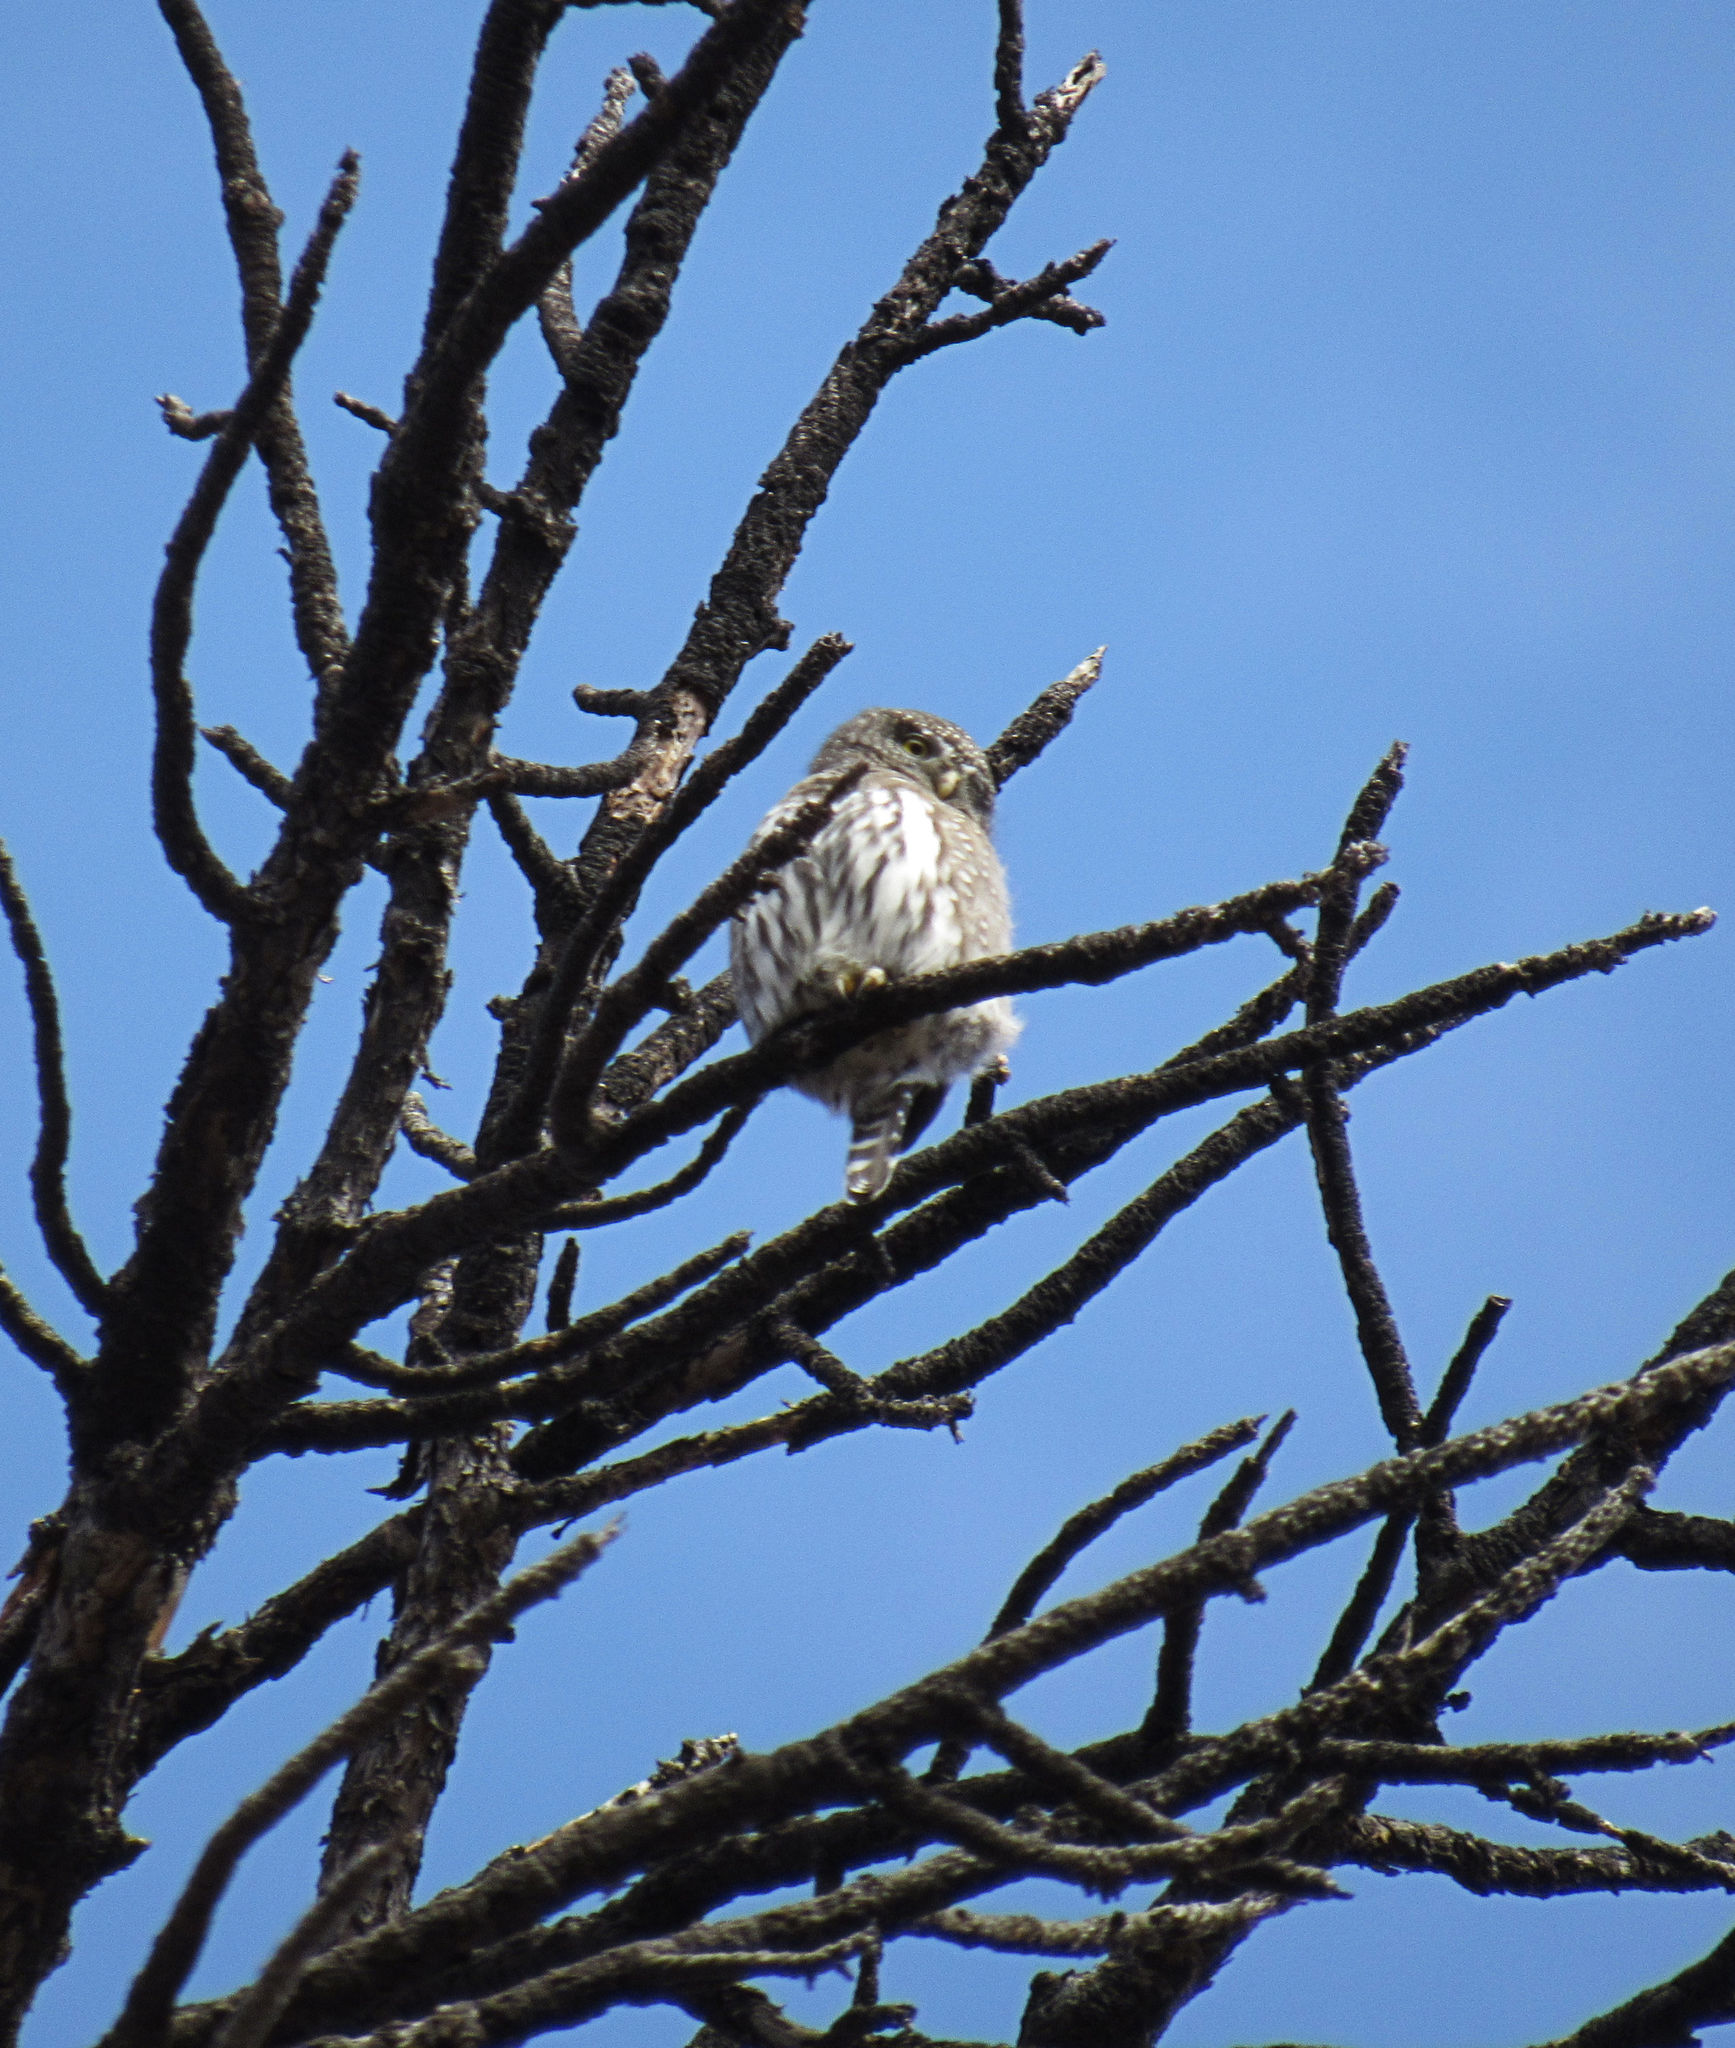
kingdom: Animalia
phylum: Chordata
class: Aves
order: Strigiformes
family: Strigidae
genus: Glaucidium
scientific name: Glaucidium gnoma
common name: Northern pygmy-owl
